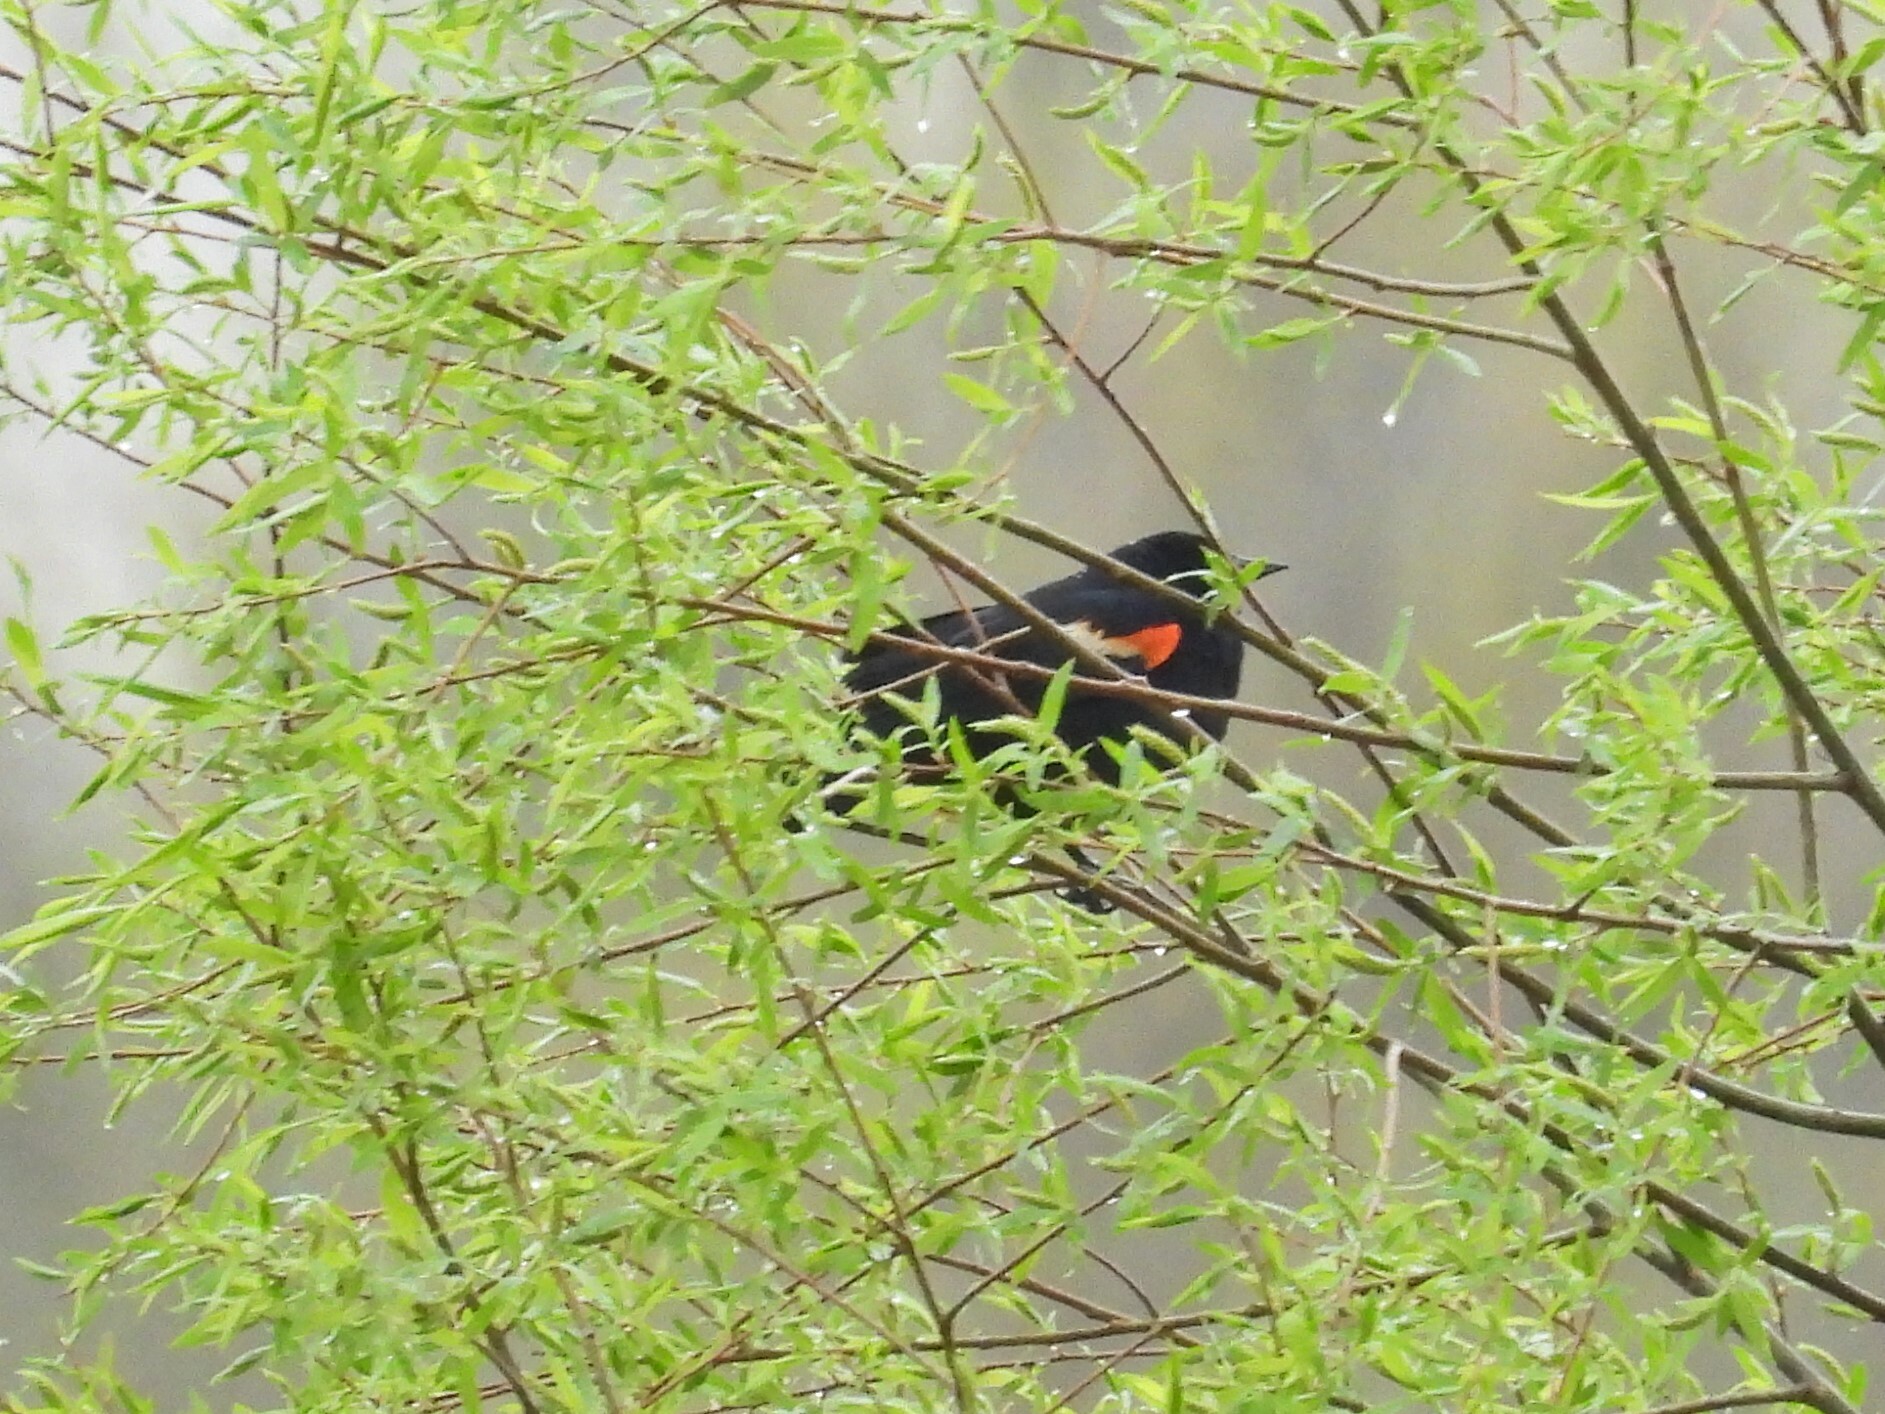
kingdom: Animalia
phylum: Chordata
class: Aves
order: Passeriformes
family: Icteridae
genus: Agelaius
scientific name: Agelaius phoeniceus
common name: Red-winged blackbird
